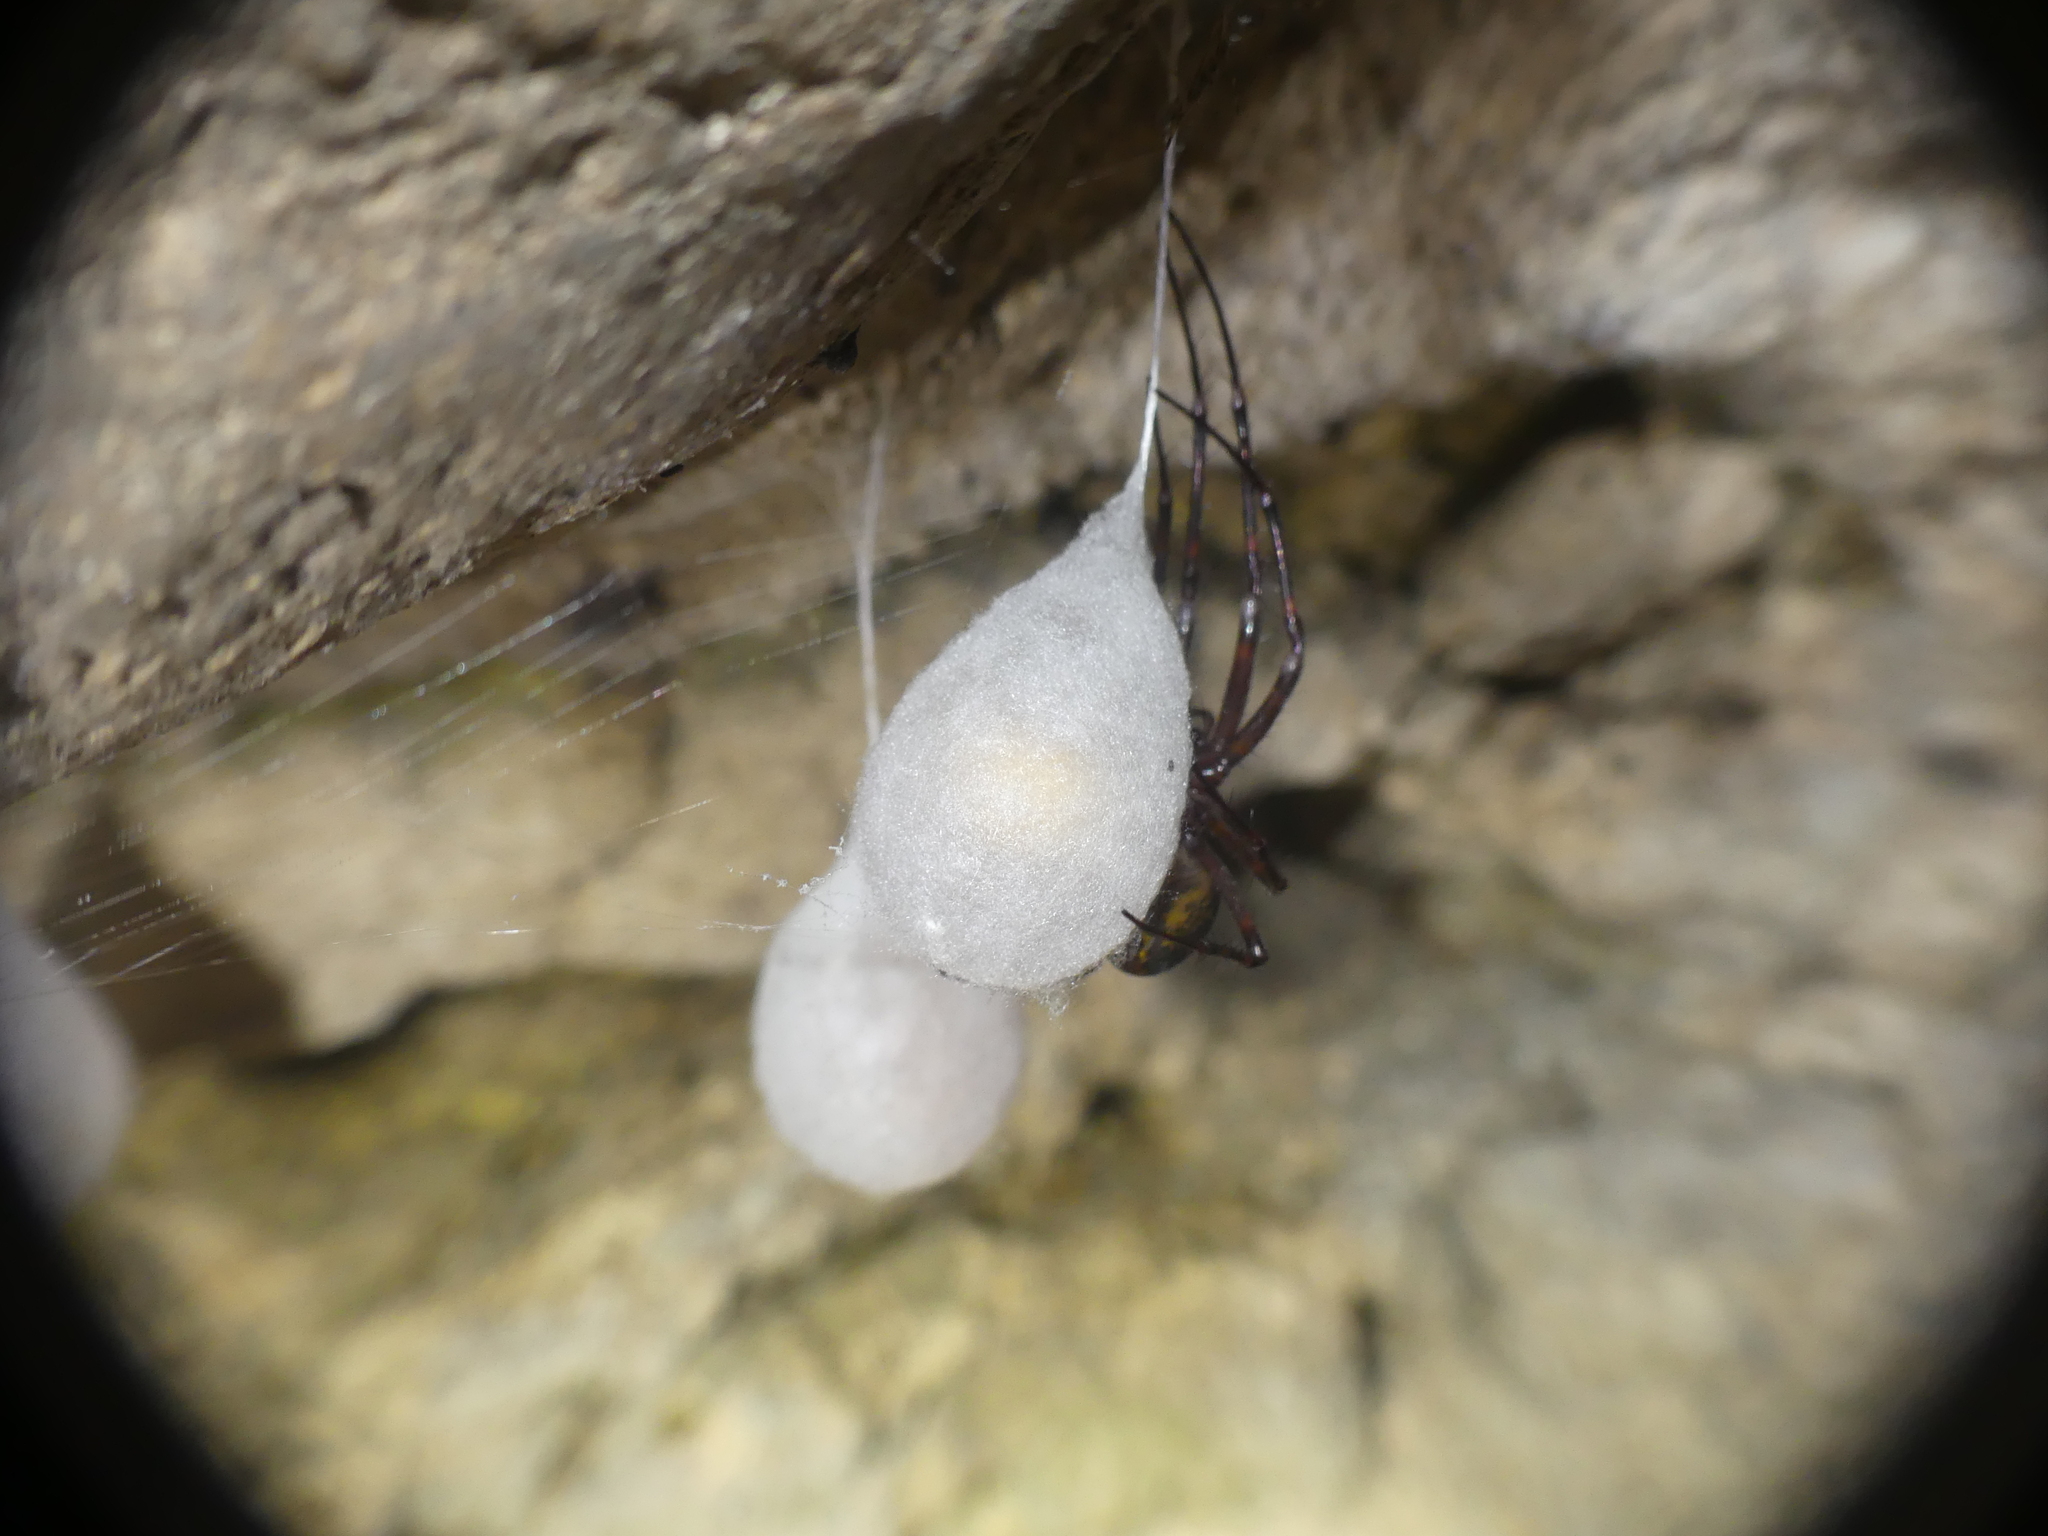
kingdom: Animalia
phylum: Arthropoda
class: Arachnida
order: Araneae
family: Tetragnathidae
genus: Meta
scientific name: Meta menardi
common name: Cave spider
